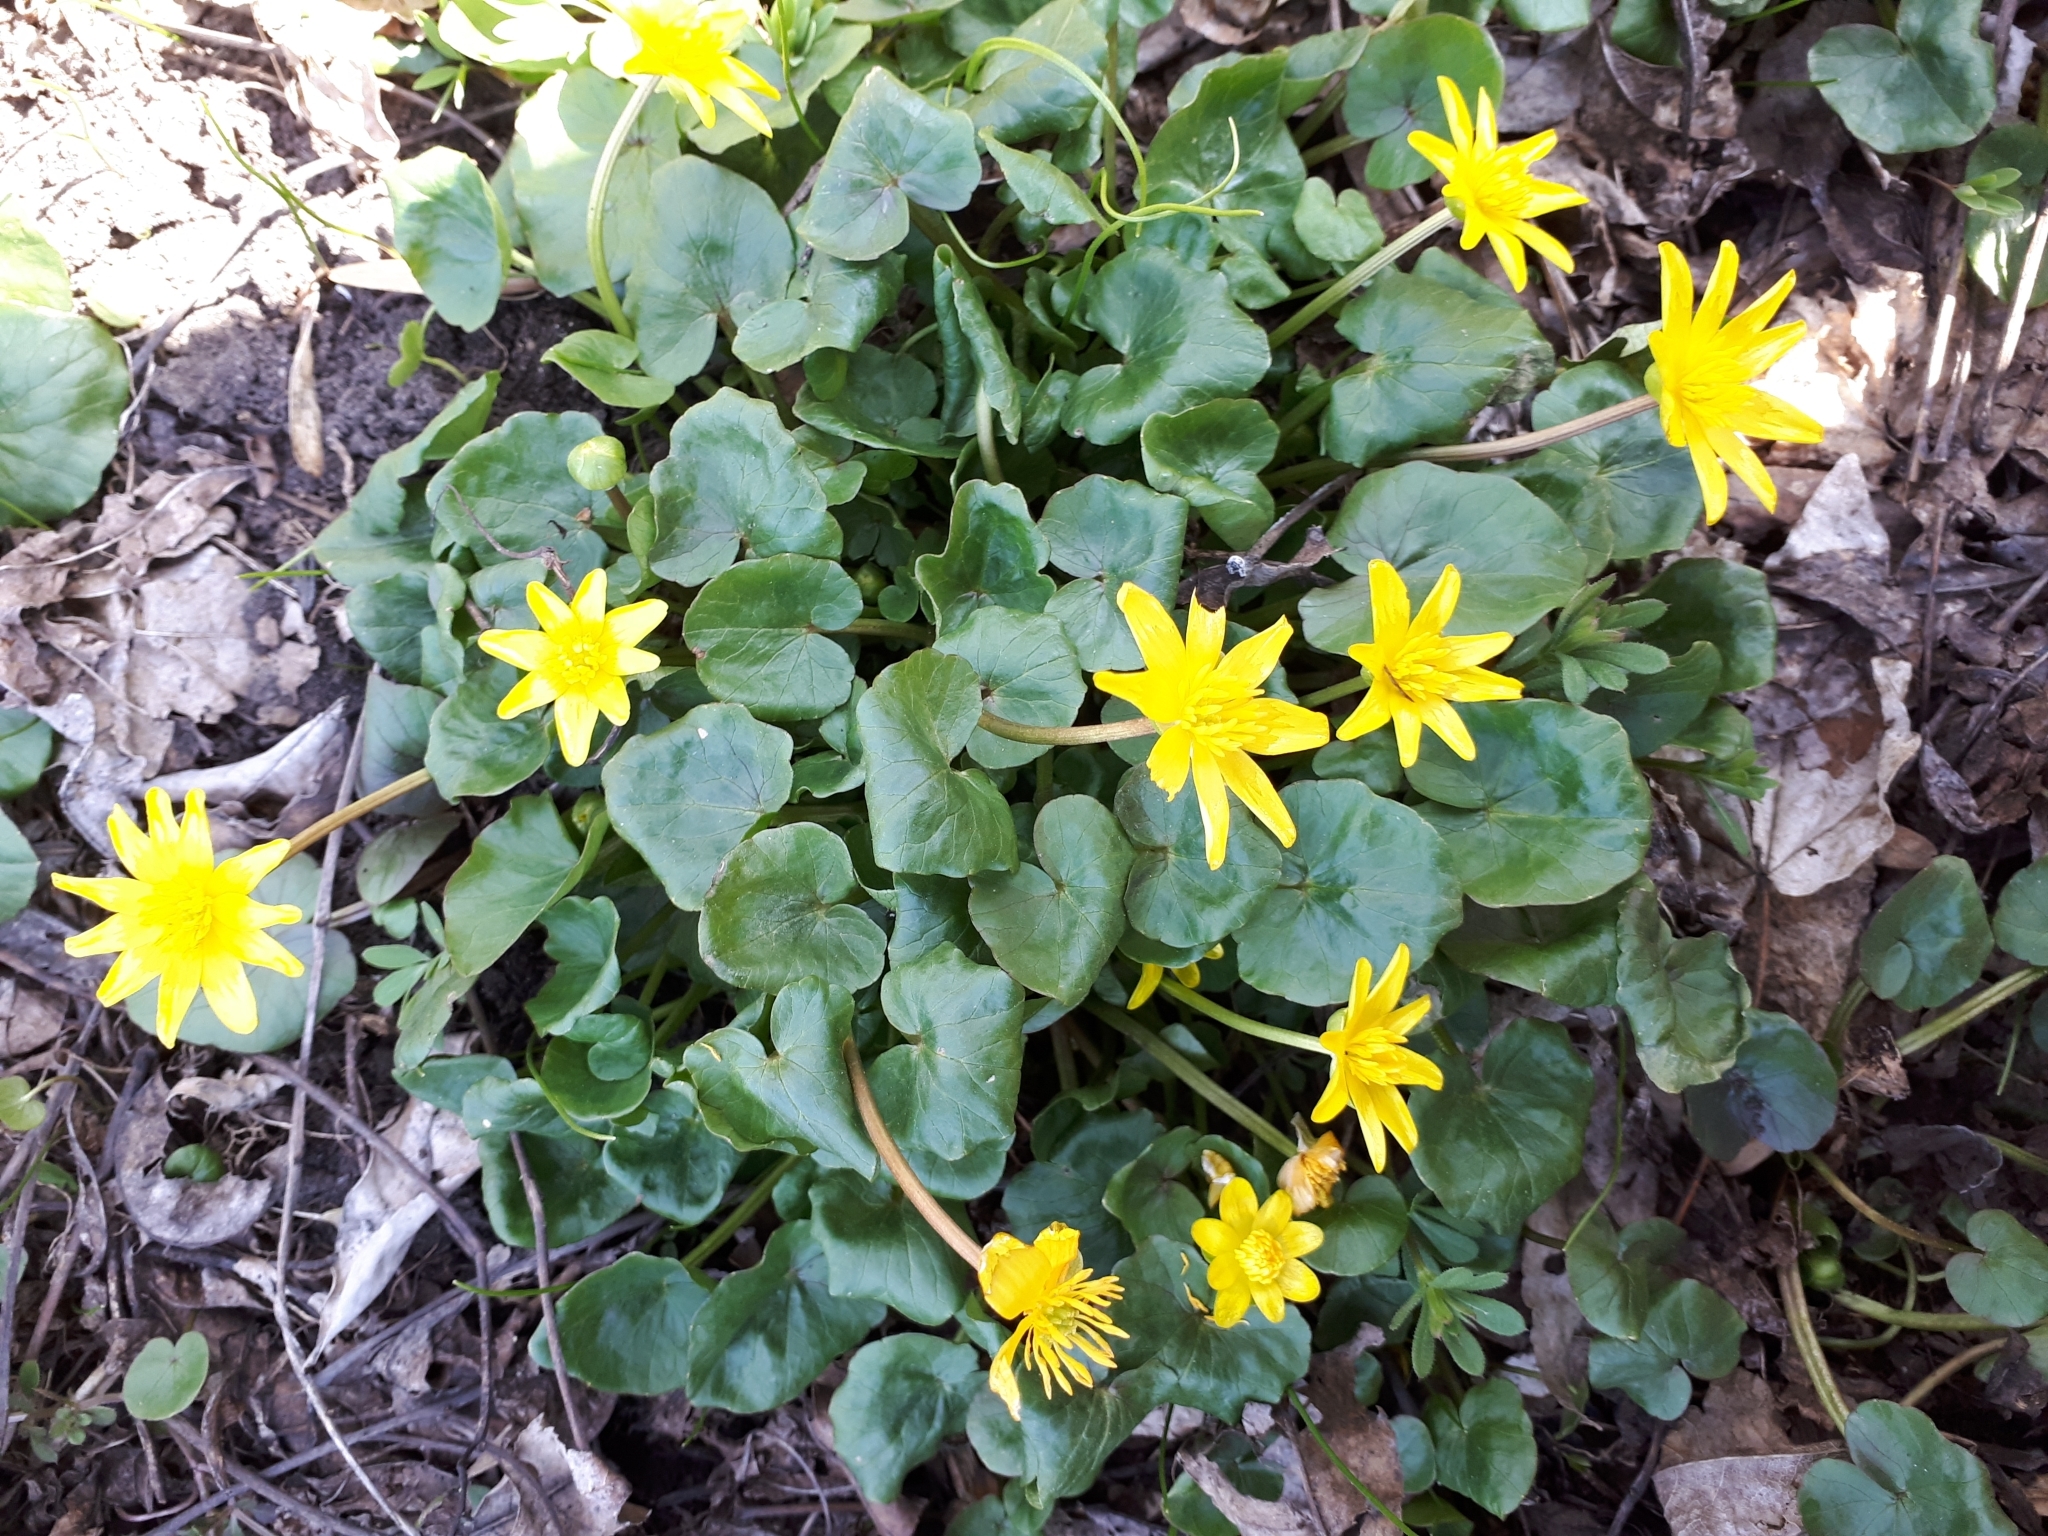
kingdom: Plantae
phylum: Tracheophyta
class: Magnoliopsida
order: Ranunculales
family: Ranunculaceae
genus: Ficaria
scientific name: Ficaria verna
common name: Lesser celandine
